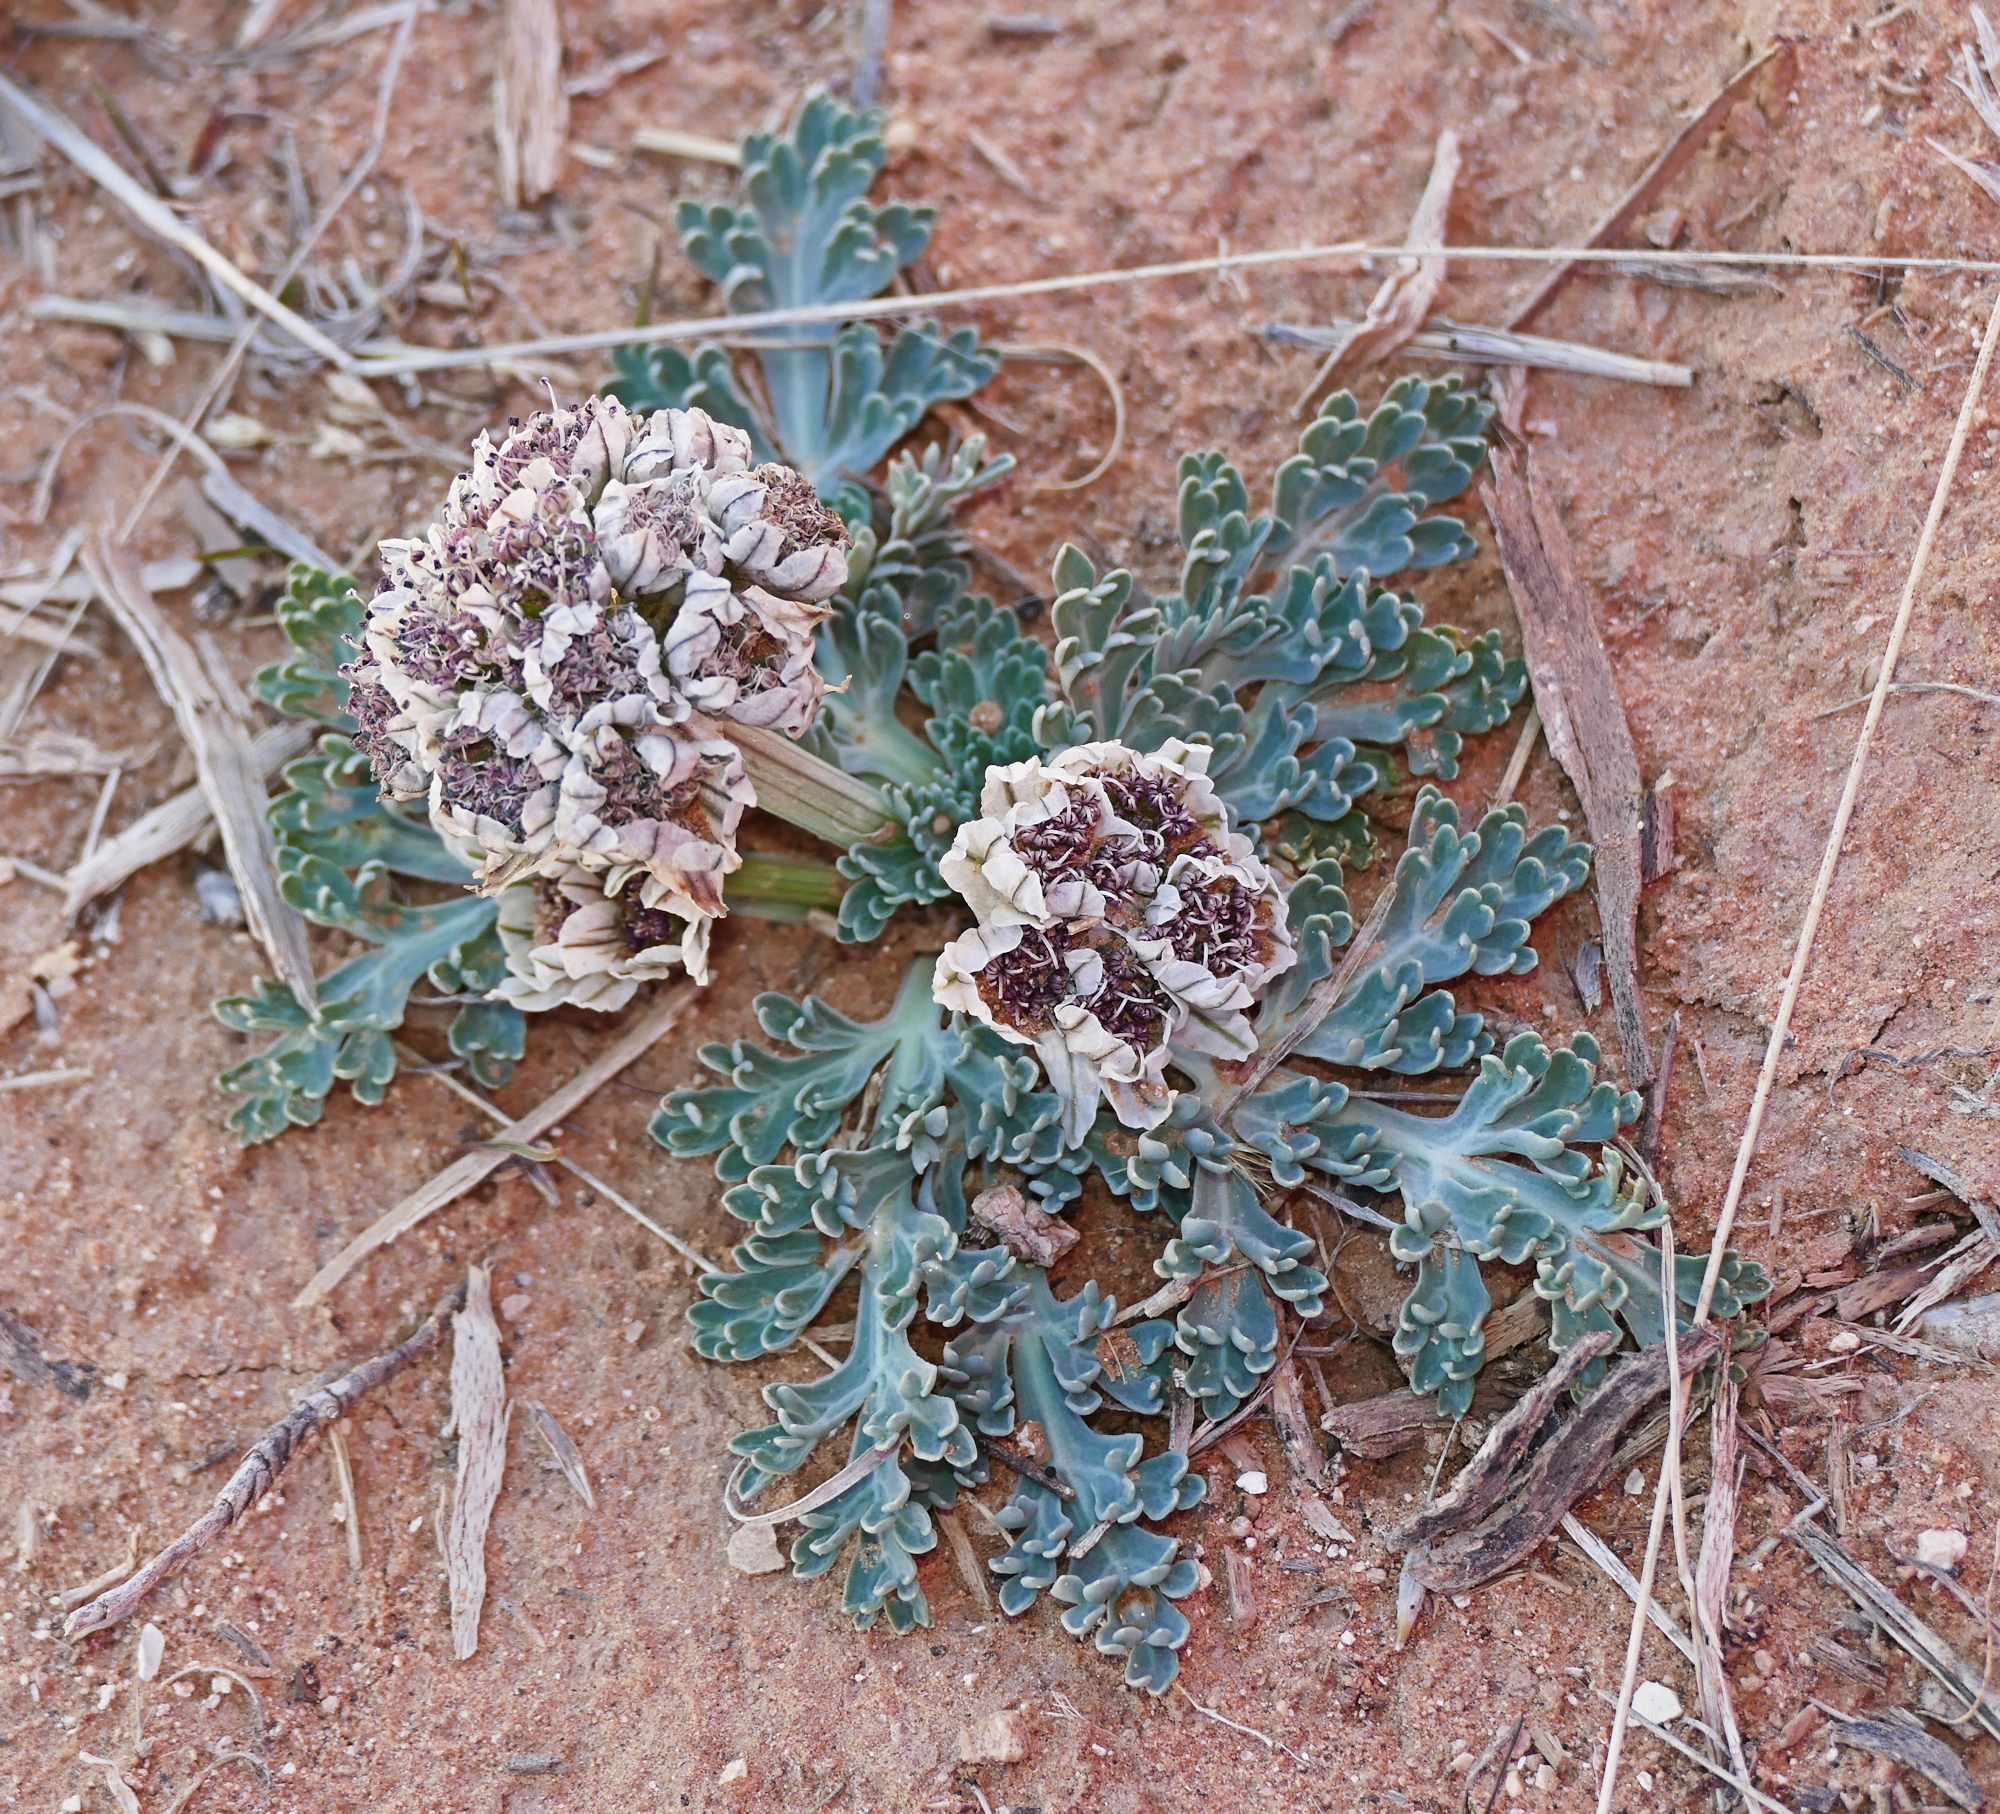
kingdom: Plantae
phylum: Tracheophyta
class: Magnoliopsida
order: Apiales
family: Apiaceae
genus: Vesper
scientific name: Vesper purpurascens
